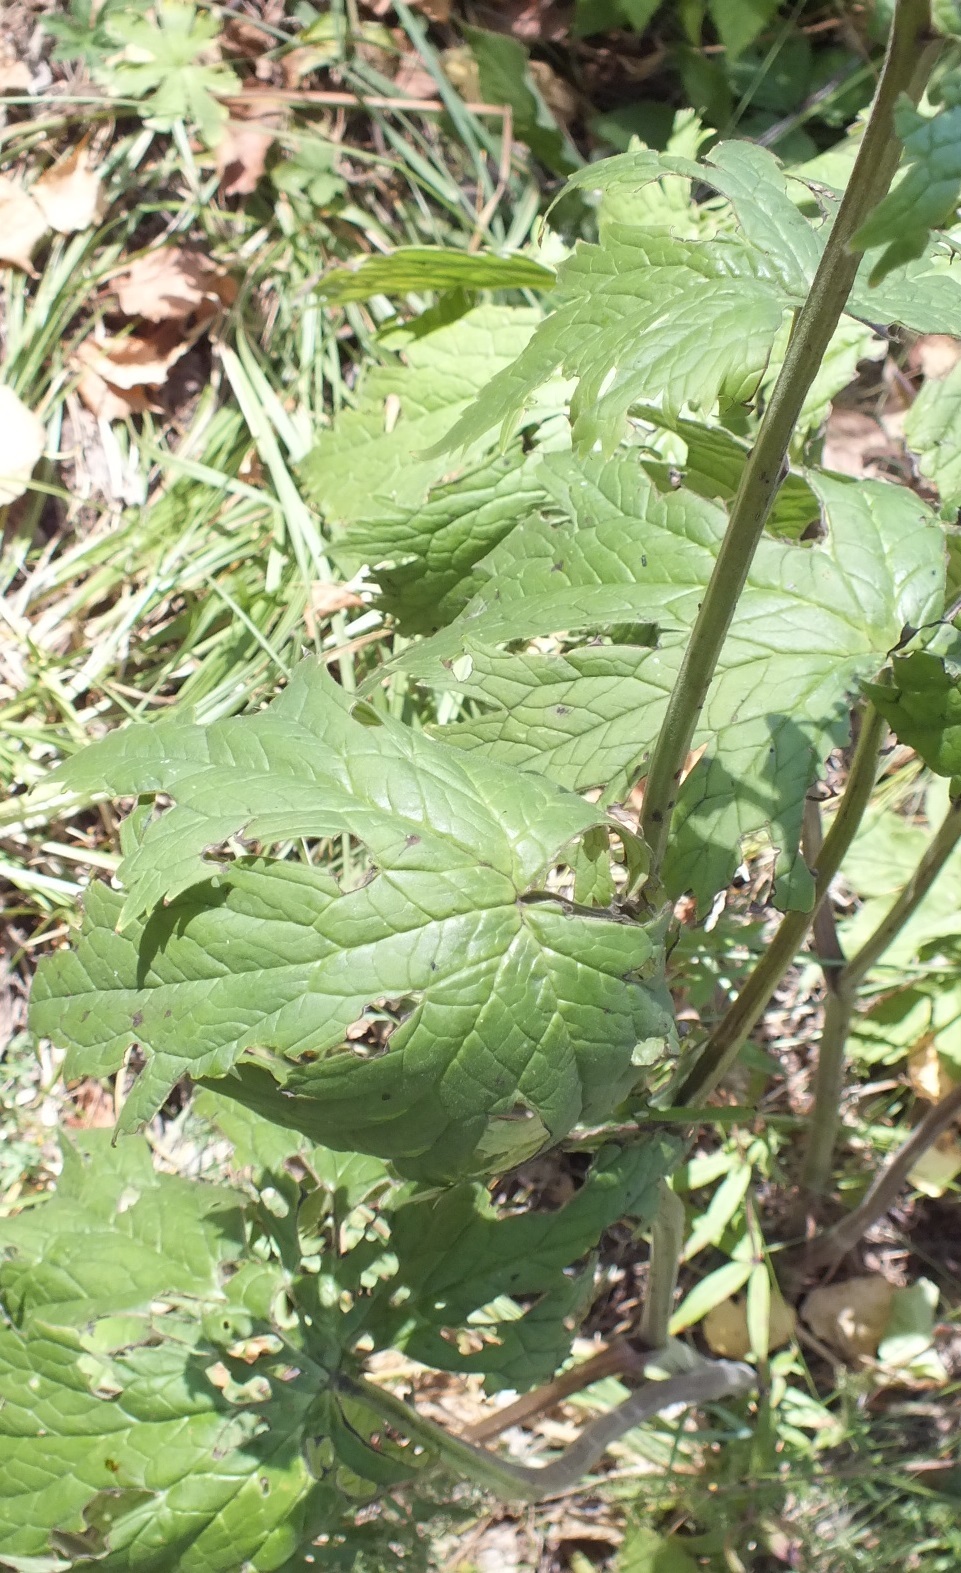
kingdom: Plantae
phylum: Tracheophyta
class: Magnoliopsida
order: Ranunculales
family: Ranunculaceae
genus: Aconitum
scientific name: Aconitum septentrionale
